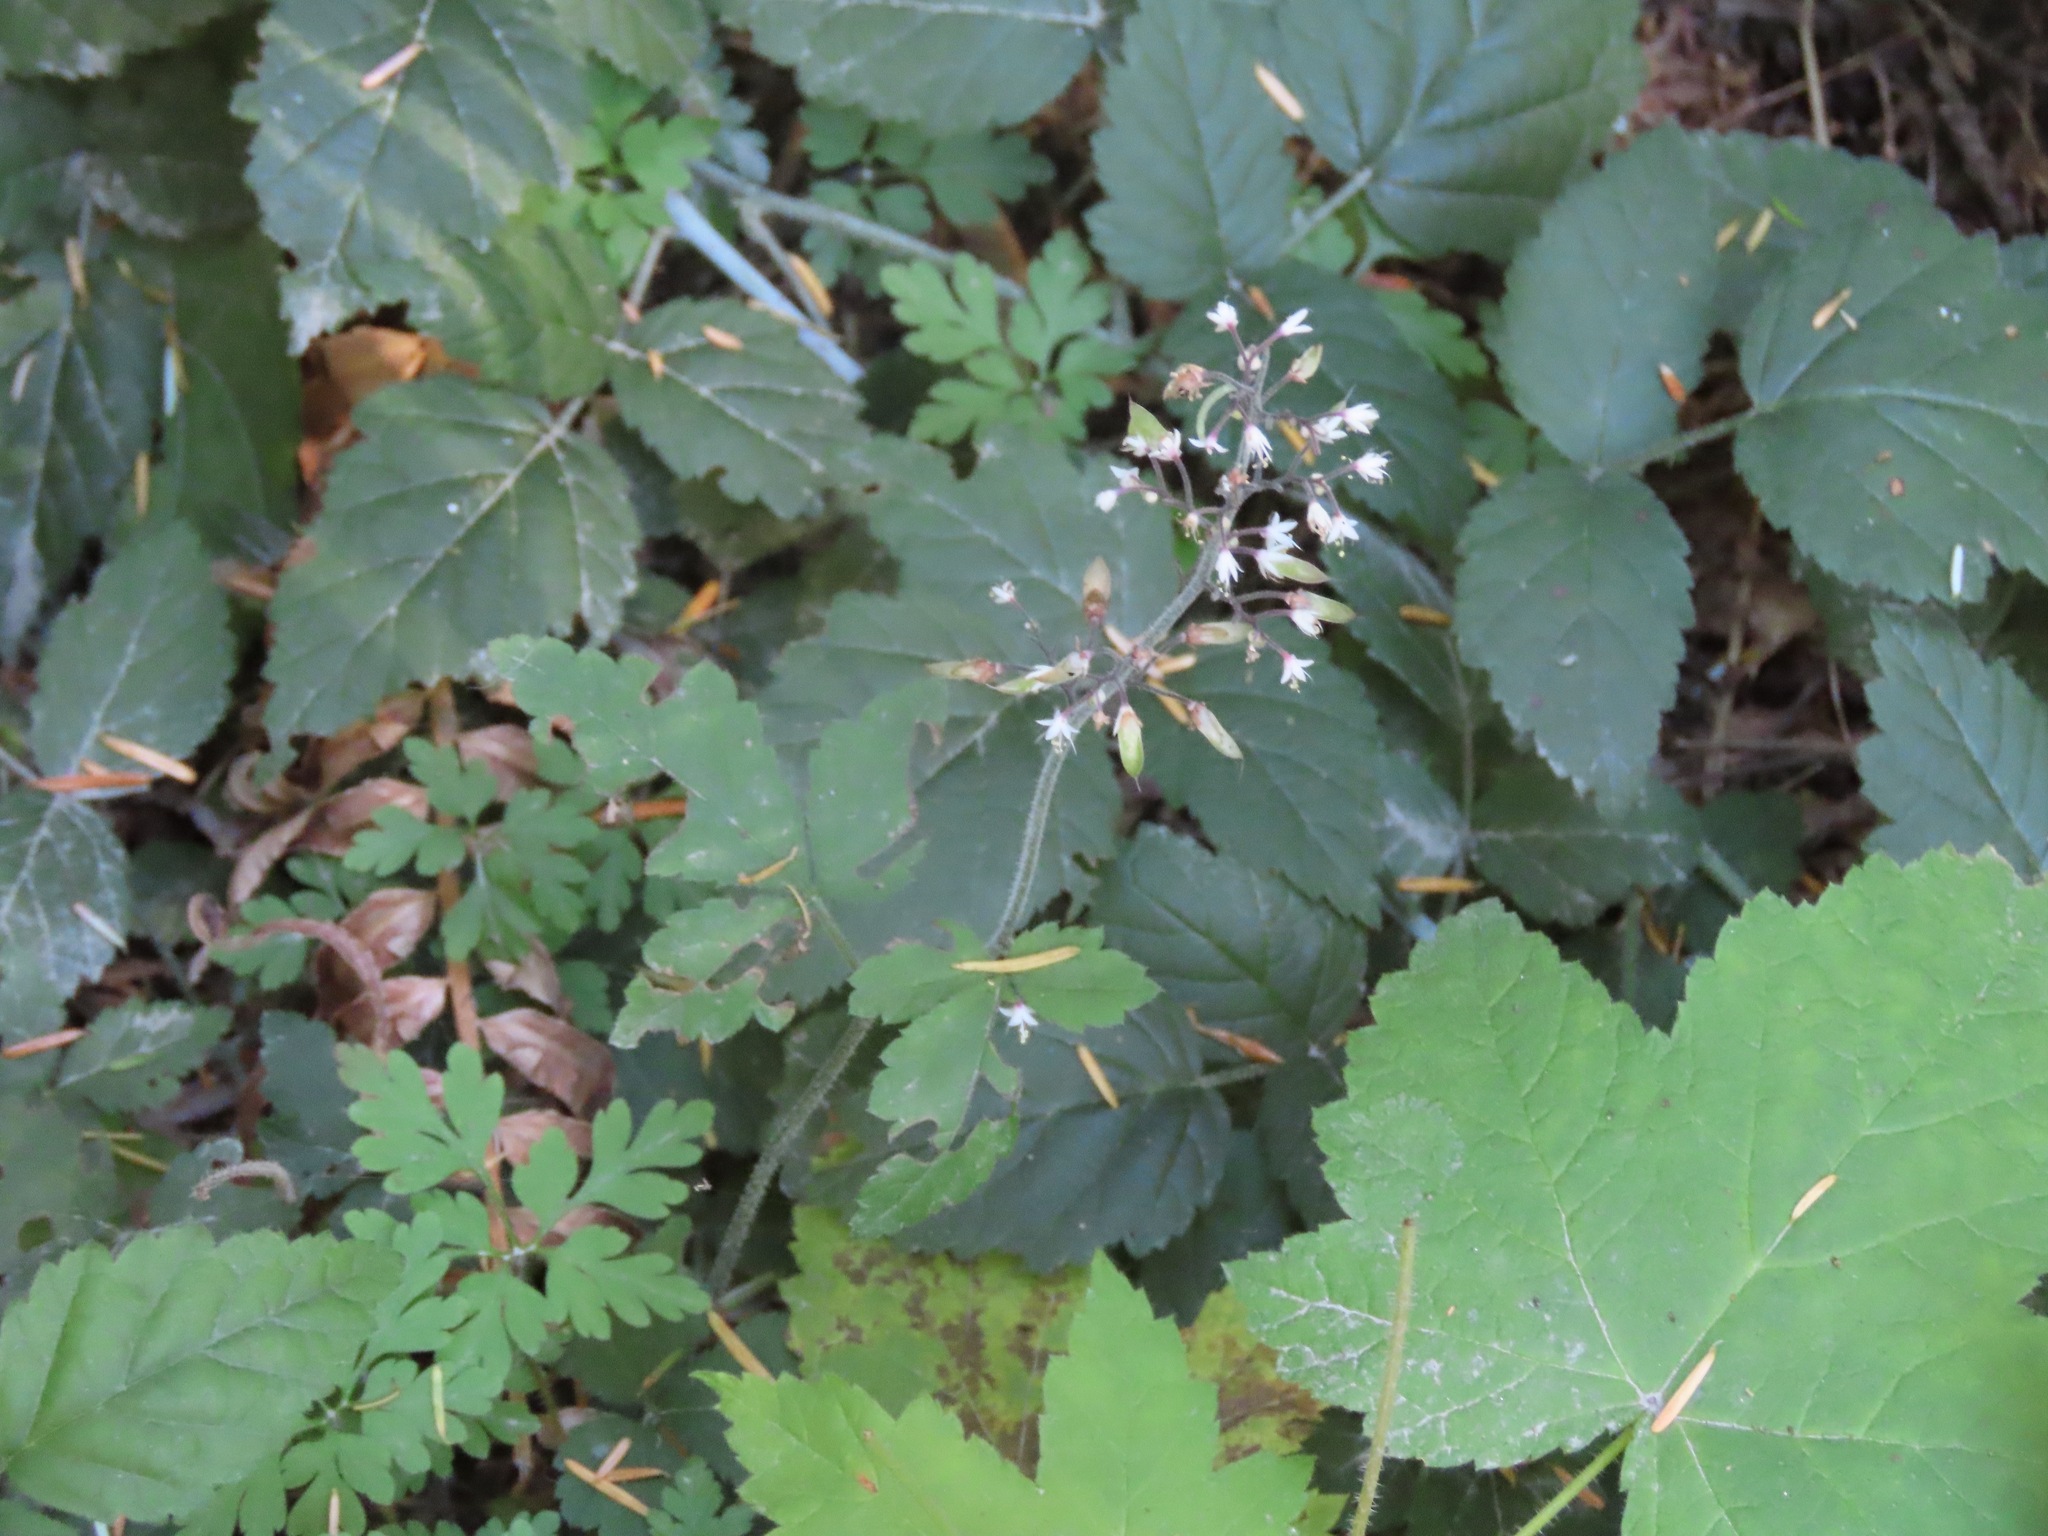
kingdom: Plantae
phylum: Tracheophyta
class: Magnoliopsida
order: Saxifragales
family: Saxifragaceae
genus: Tiarella
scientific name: Tiarella trifoliata
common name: Sugar-scoop
